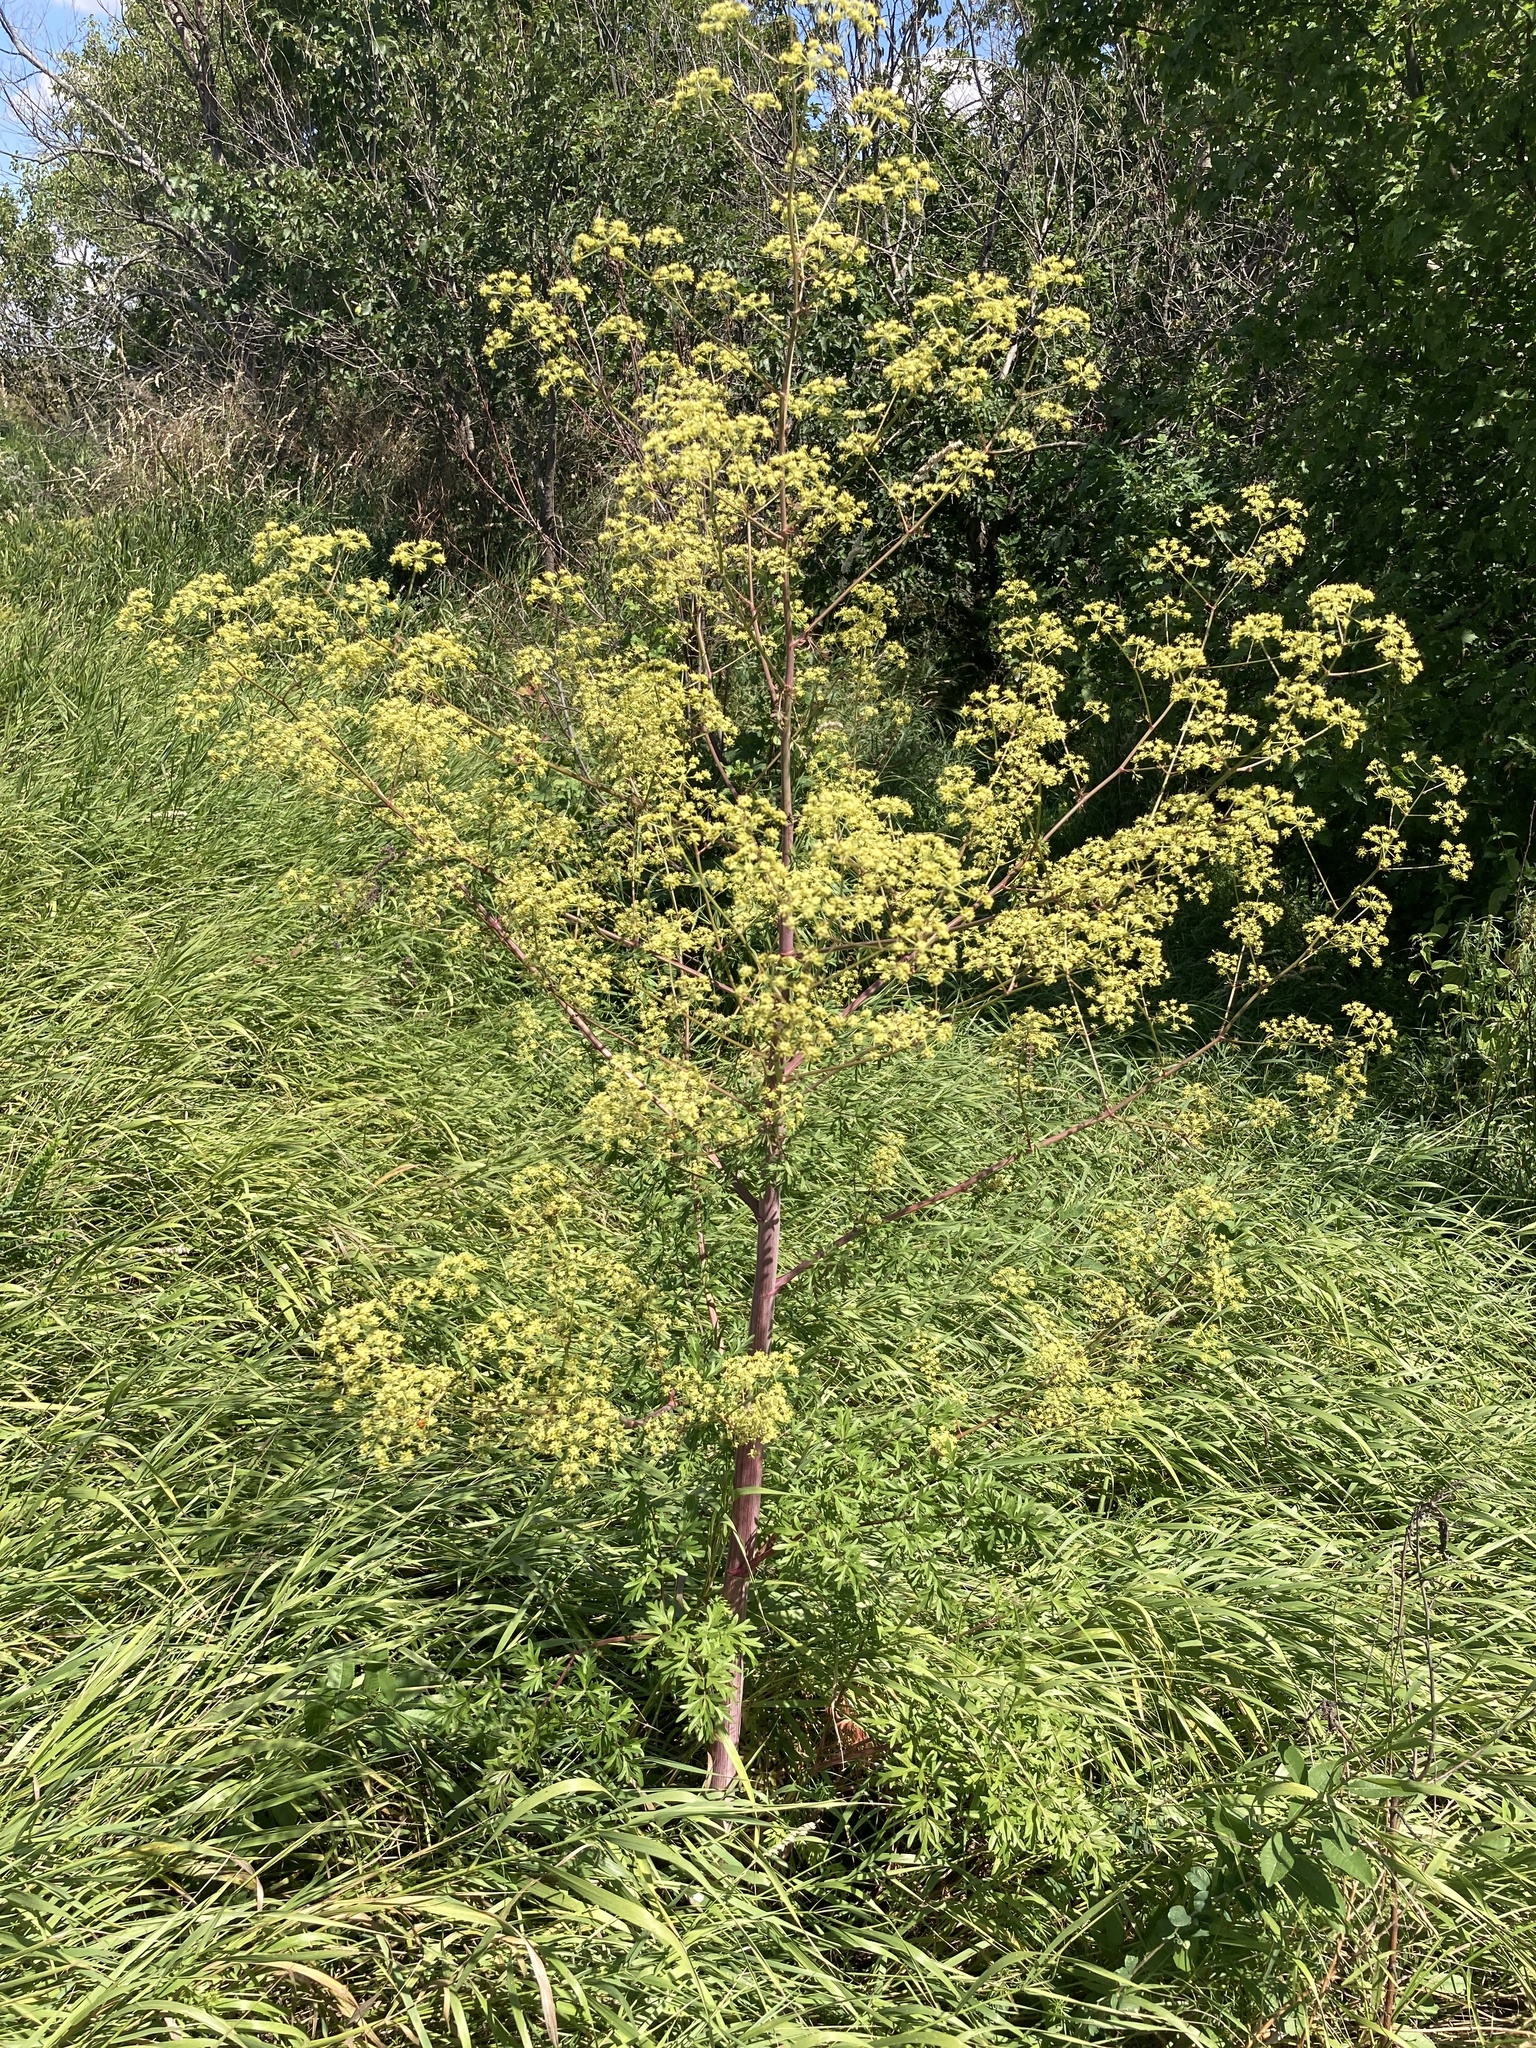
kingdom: Plantae
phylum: Tracheophyta
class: Magnoliopsida
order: Apiales
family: Apiaceae
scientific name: Apiaceae
